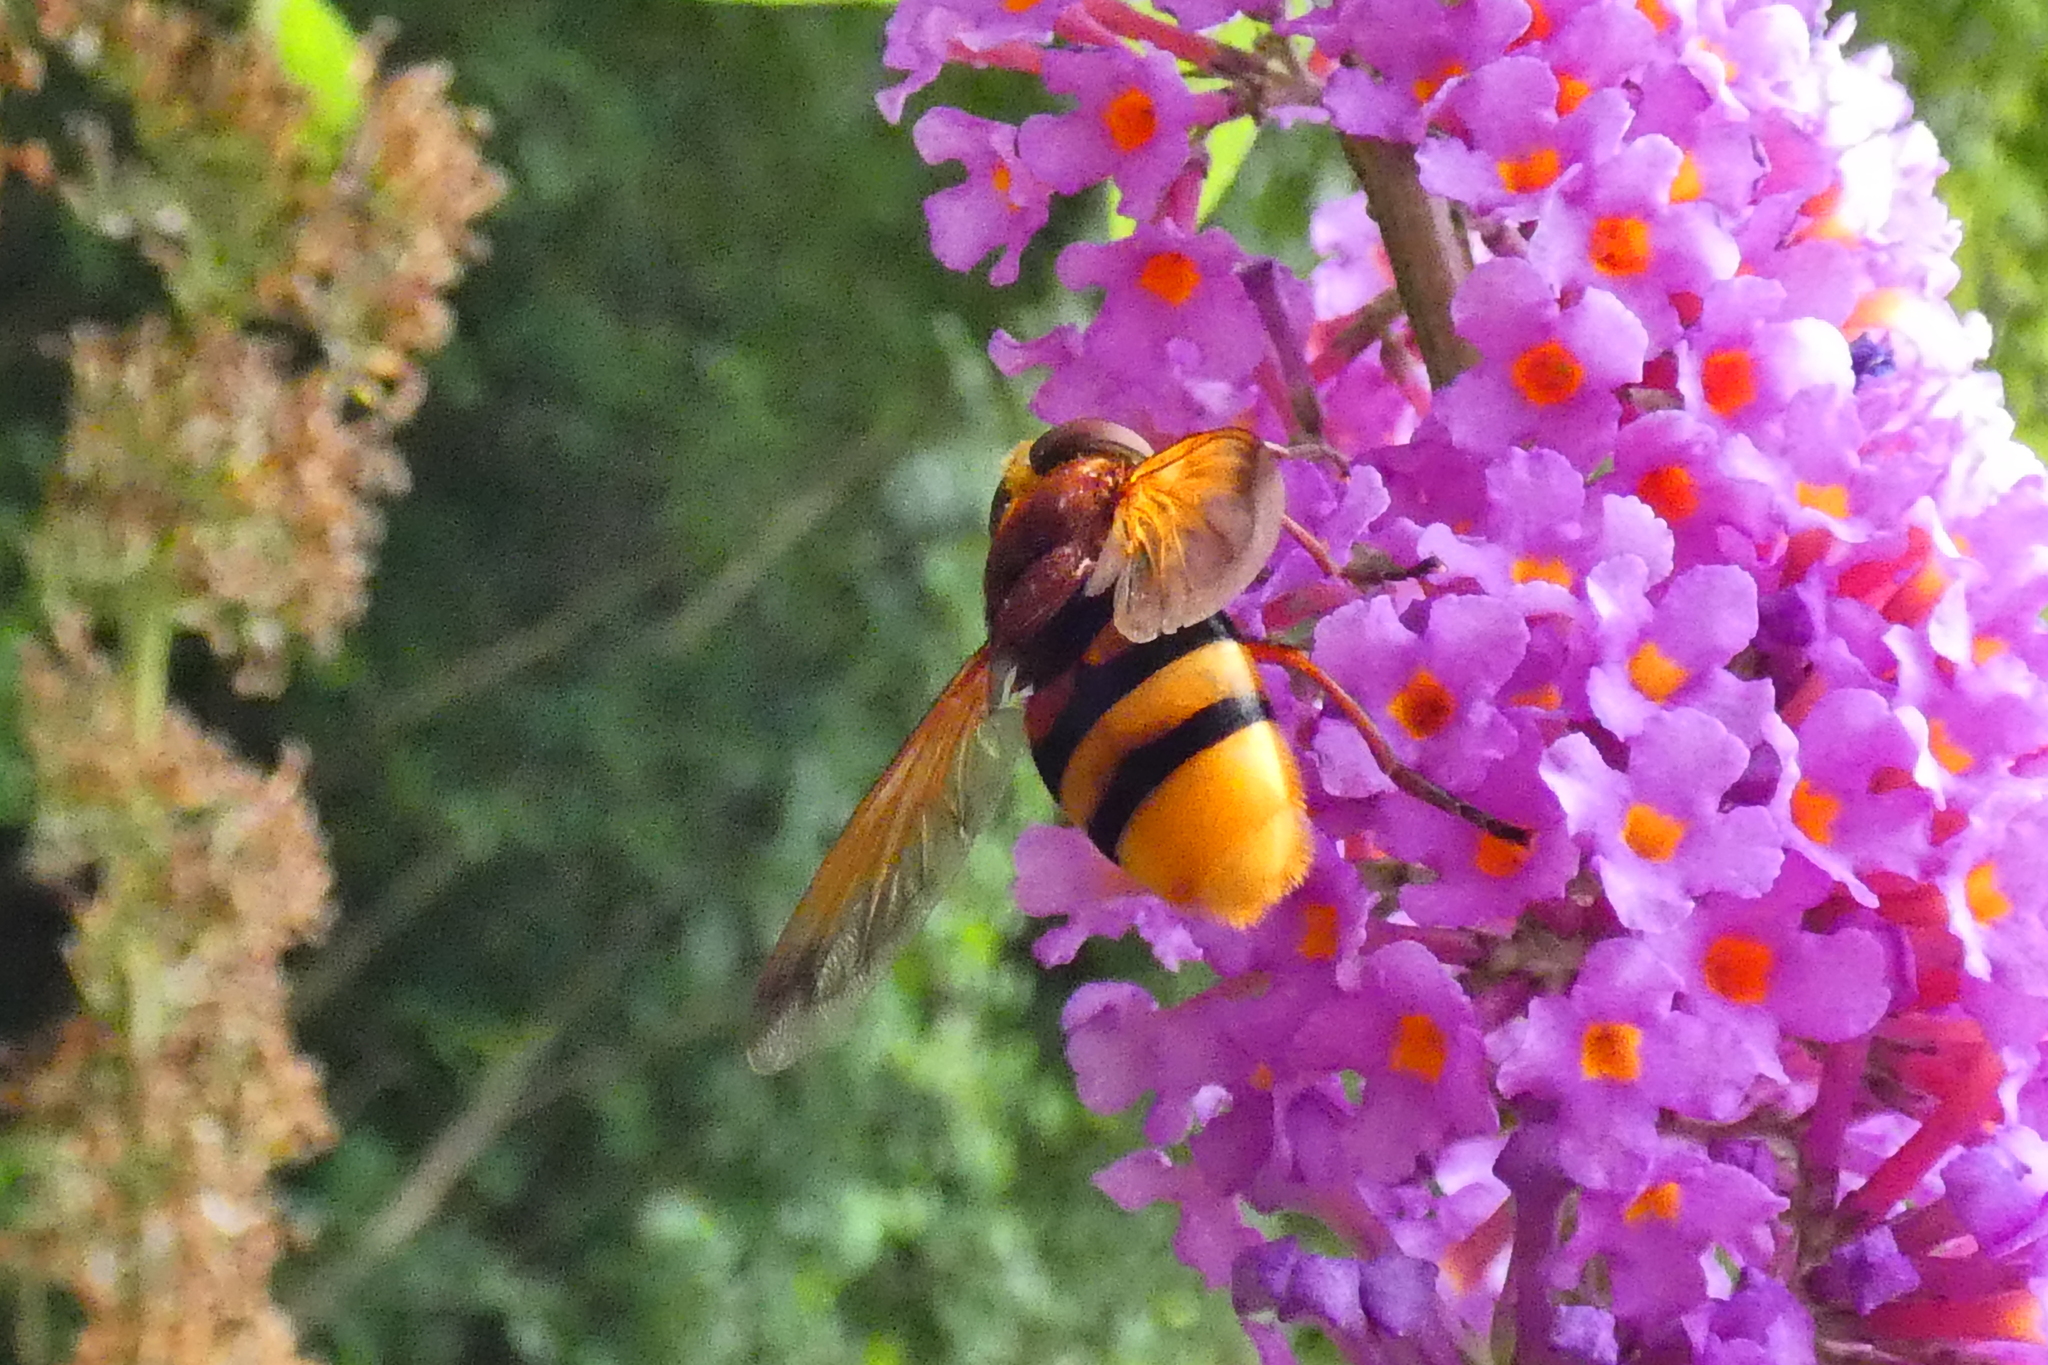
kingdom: Animalia
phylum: Arthropoda
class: Insecta
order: Diptera
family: Syrphidae
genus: Volucella
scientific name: Volucella zonaria
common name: Hornet hoverfly
